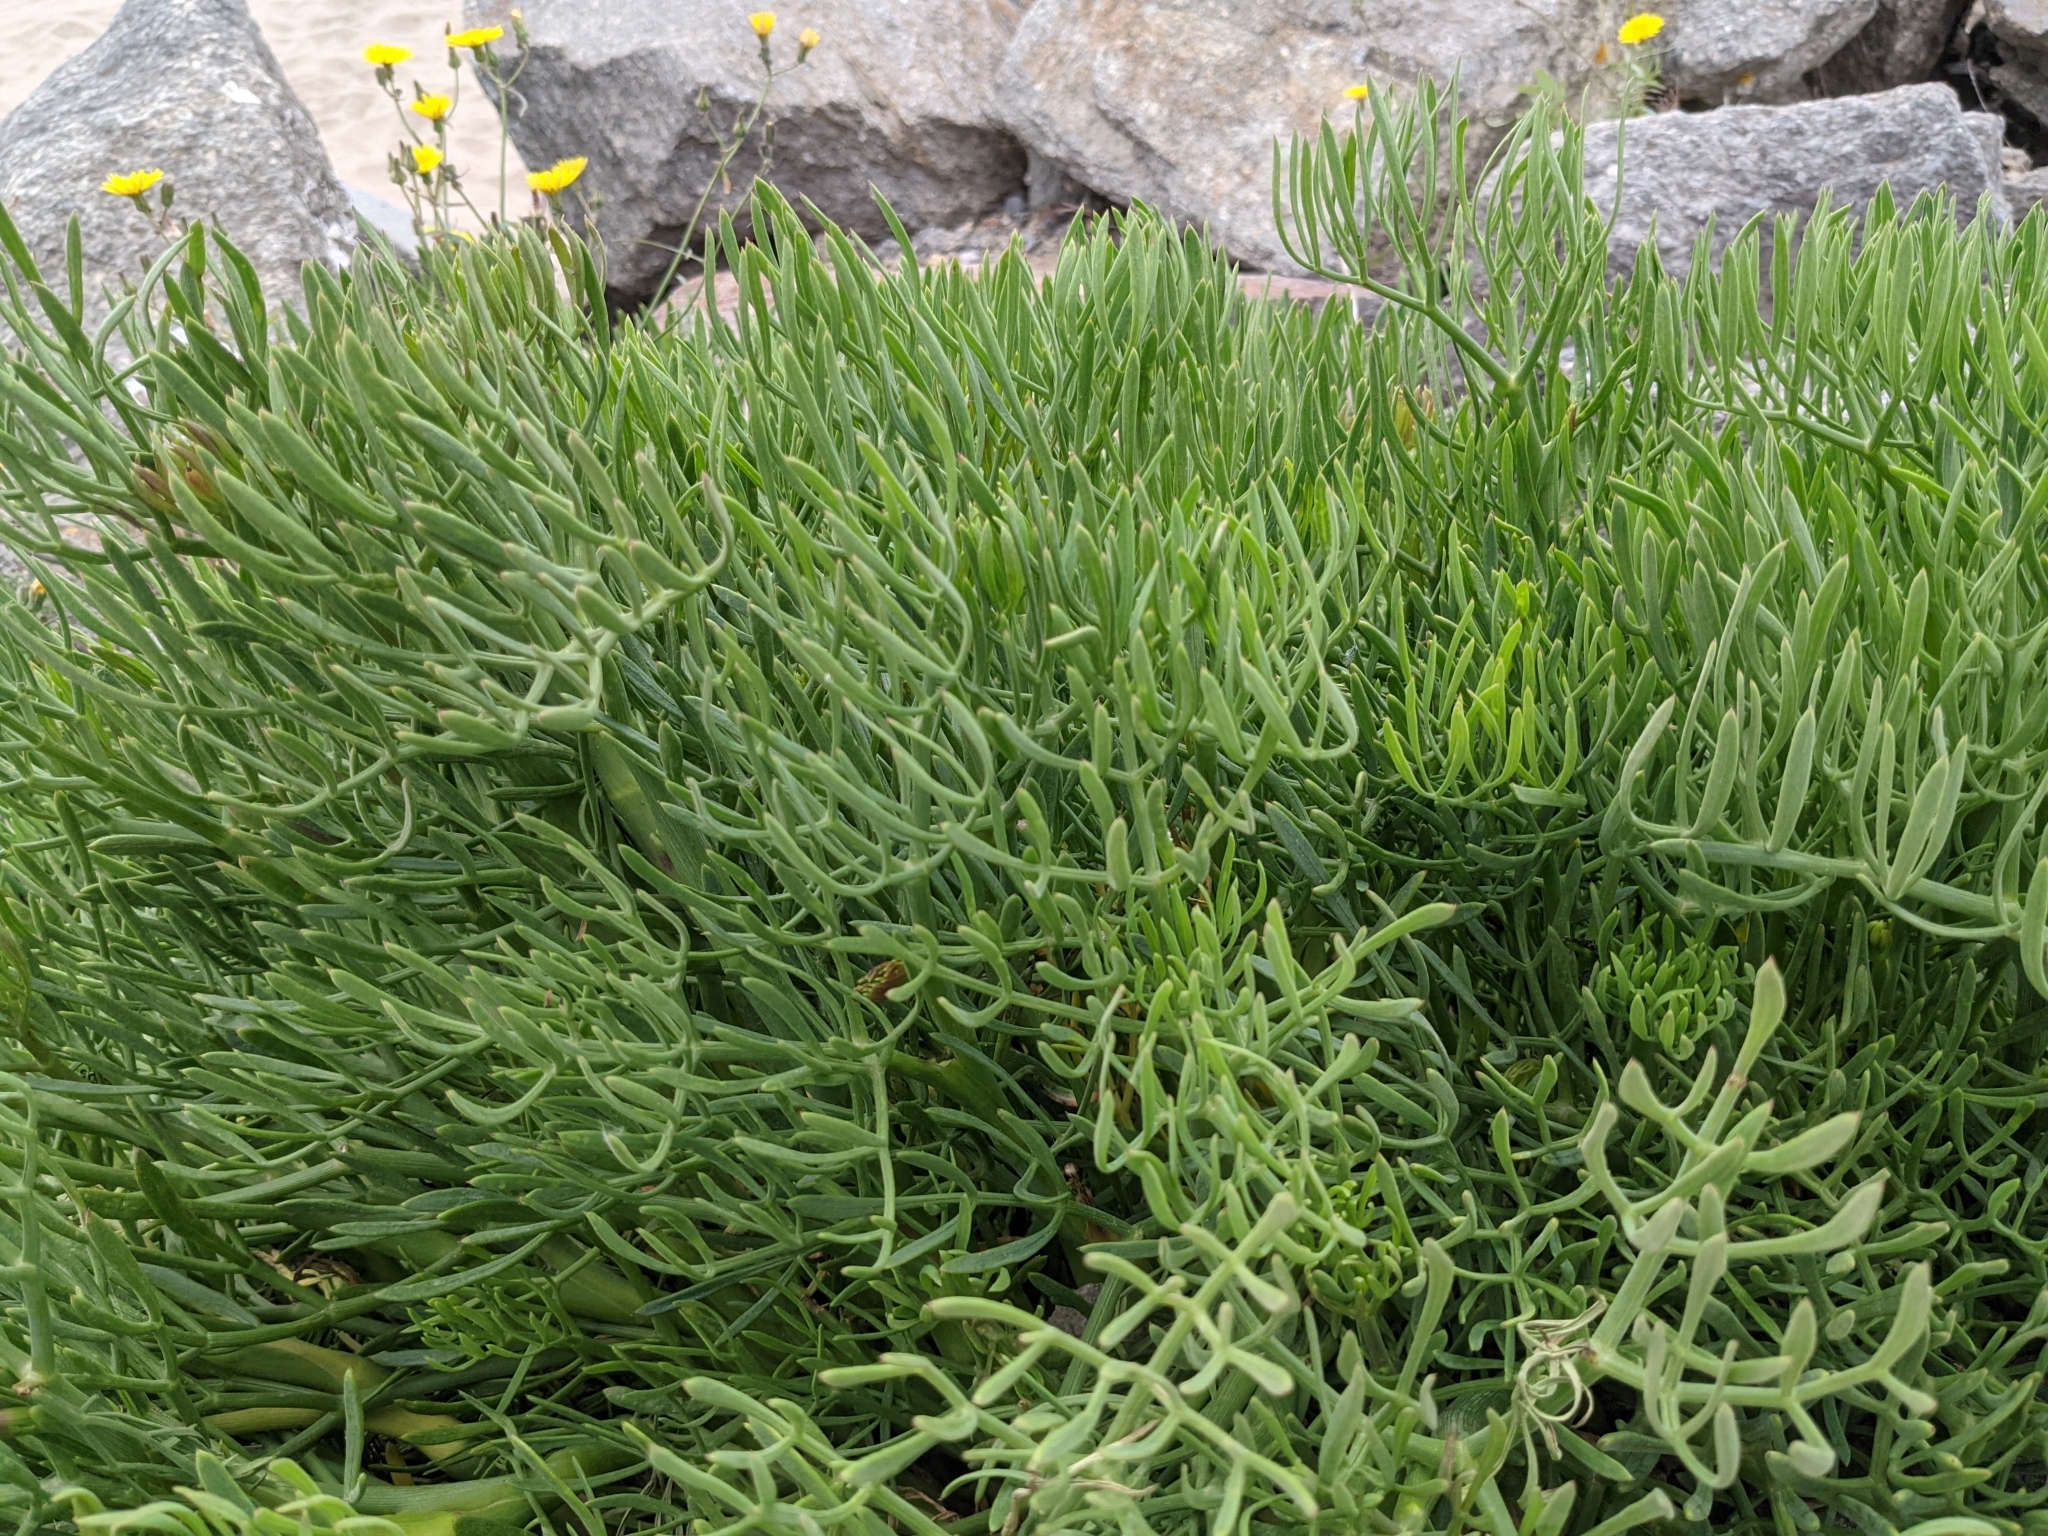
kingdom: Plantae
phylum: Tracheophyta
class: Magnoliopsida
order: Apiales
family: Apiaceae
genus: Crithmum
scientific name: Crithmum maritimum
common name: Rock samphire
